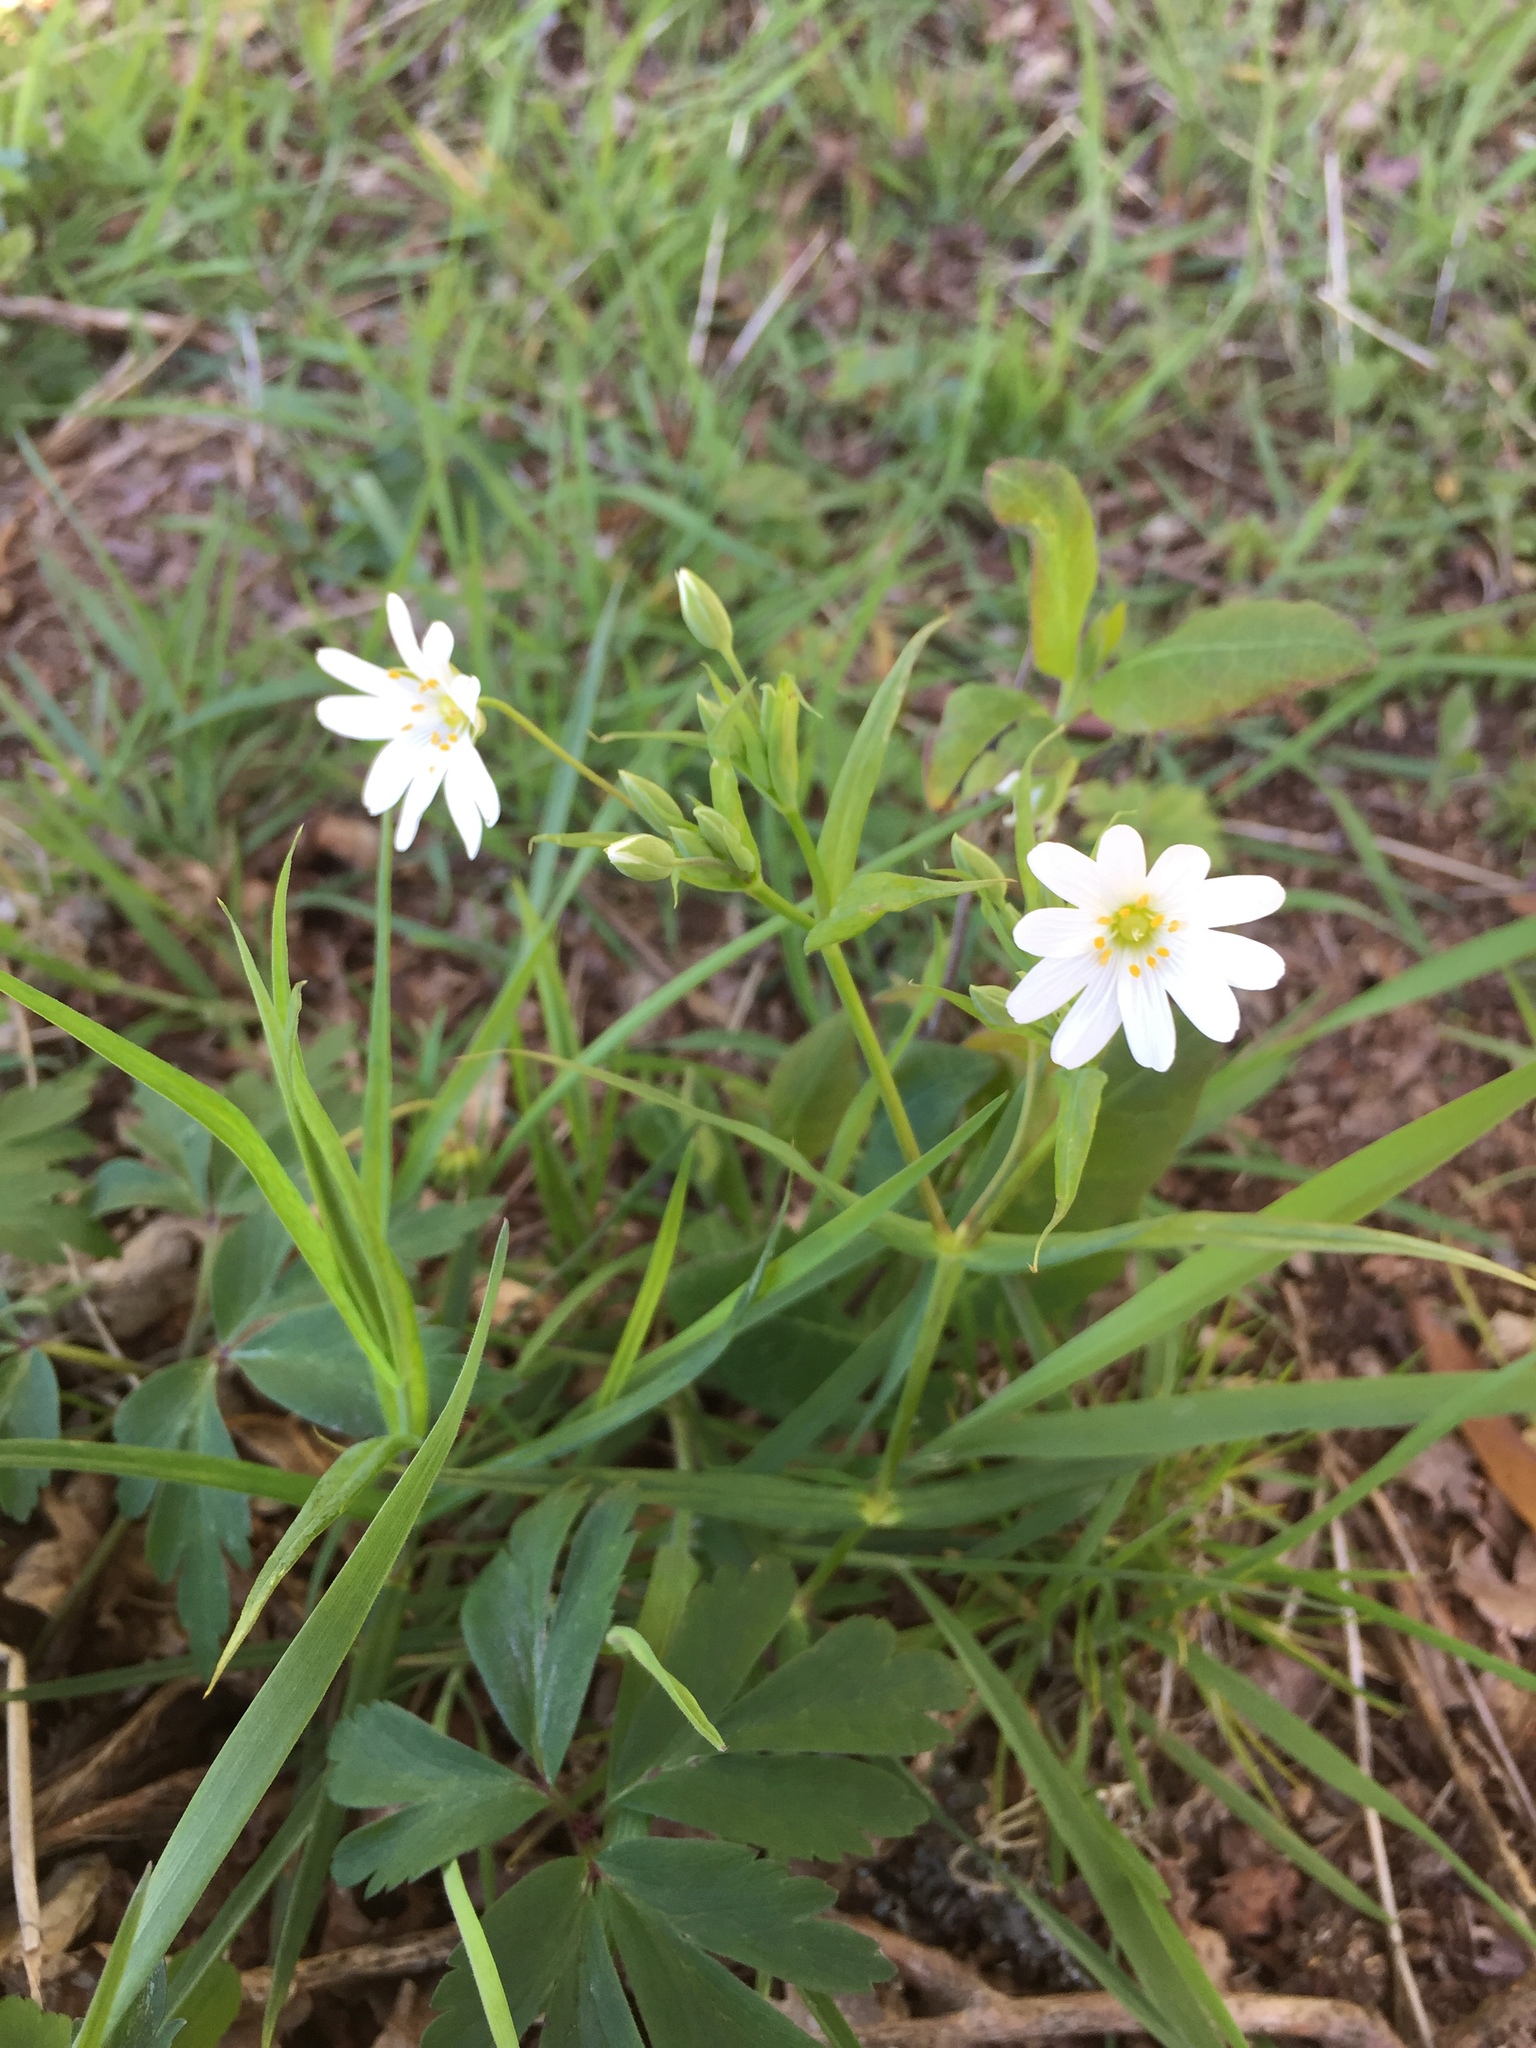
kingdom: Plantae
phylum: Tracheophyta
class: Magnoliopsida
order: Caryophyllales
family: Caryophyllaceae
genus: Rabelera
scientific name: Rabelera holostea
